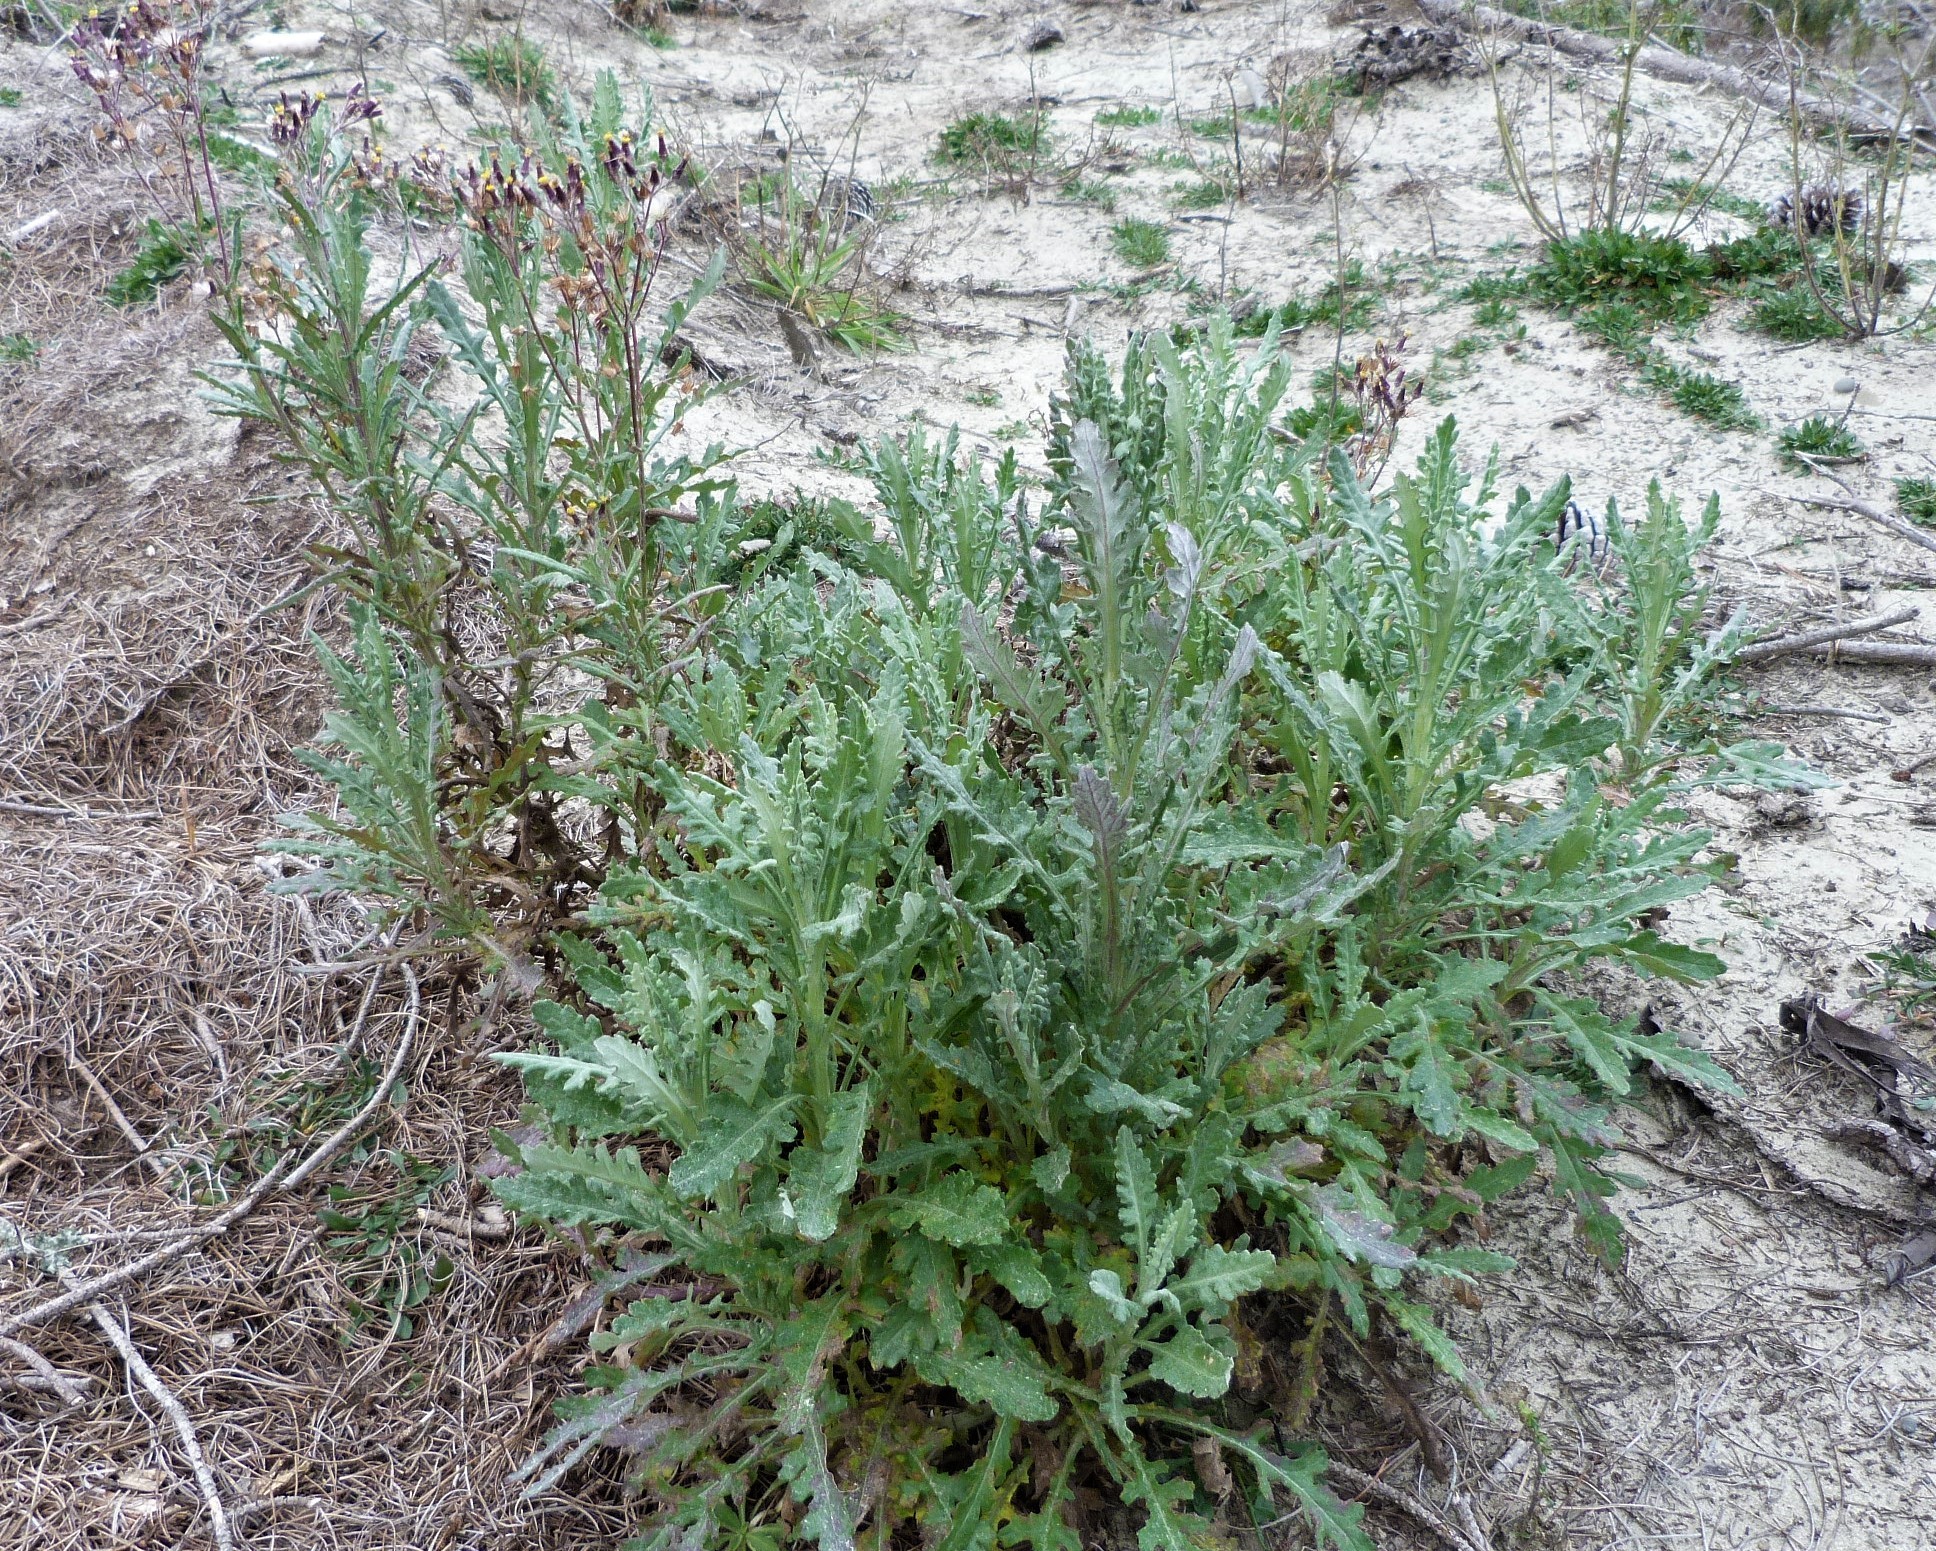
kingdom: Plantae
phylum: Tracheophyta
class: Magnoliopsida
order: Asterales
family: Asteraceae
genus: Senecio
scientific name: Senecio glomeratus
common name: Cutleaf burnweed
